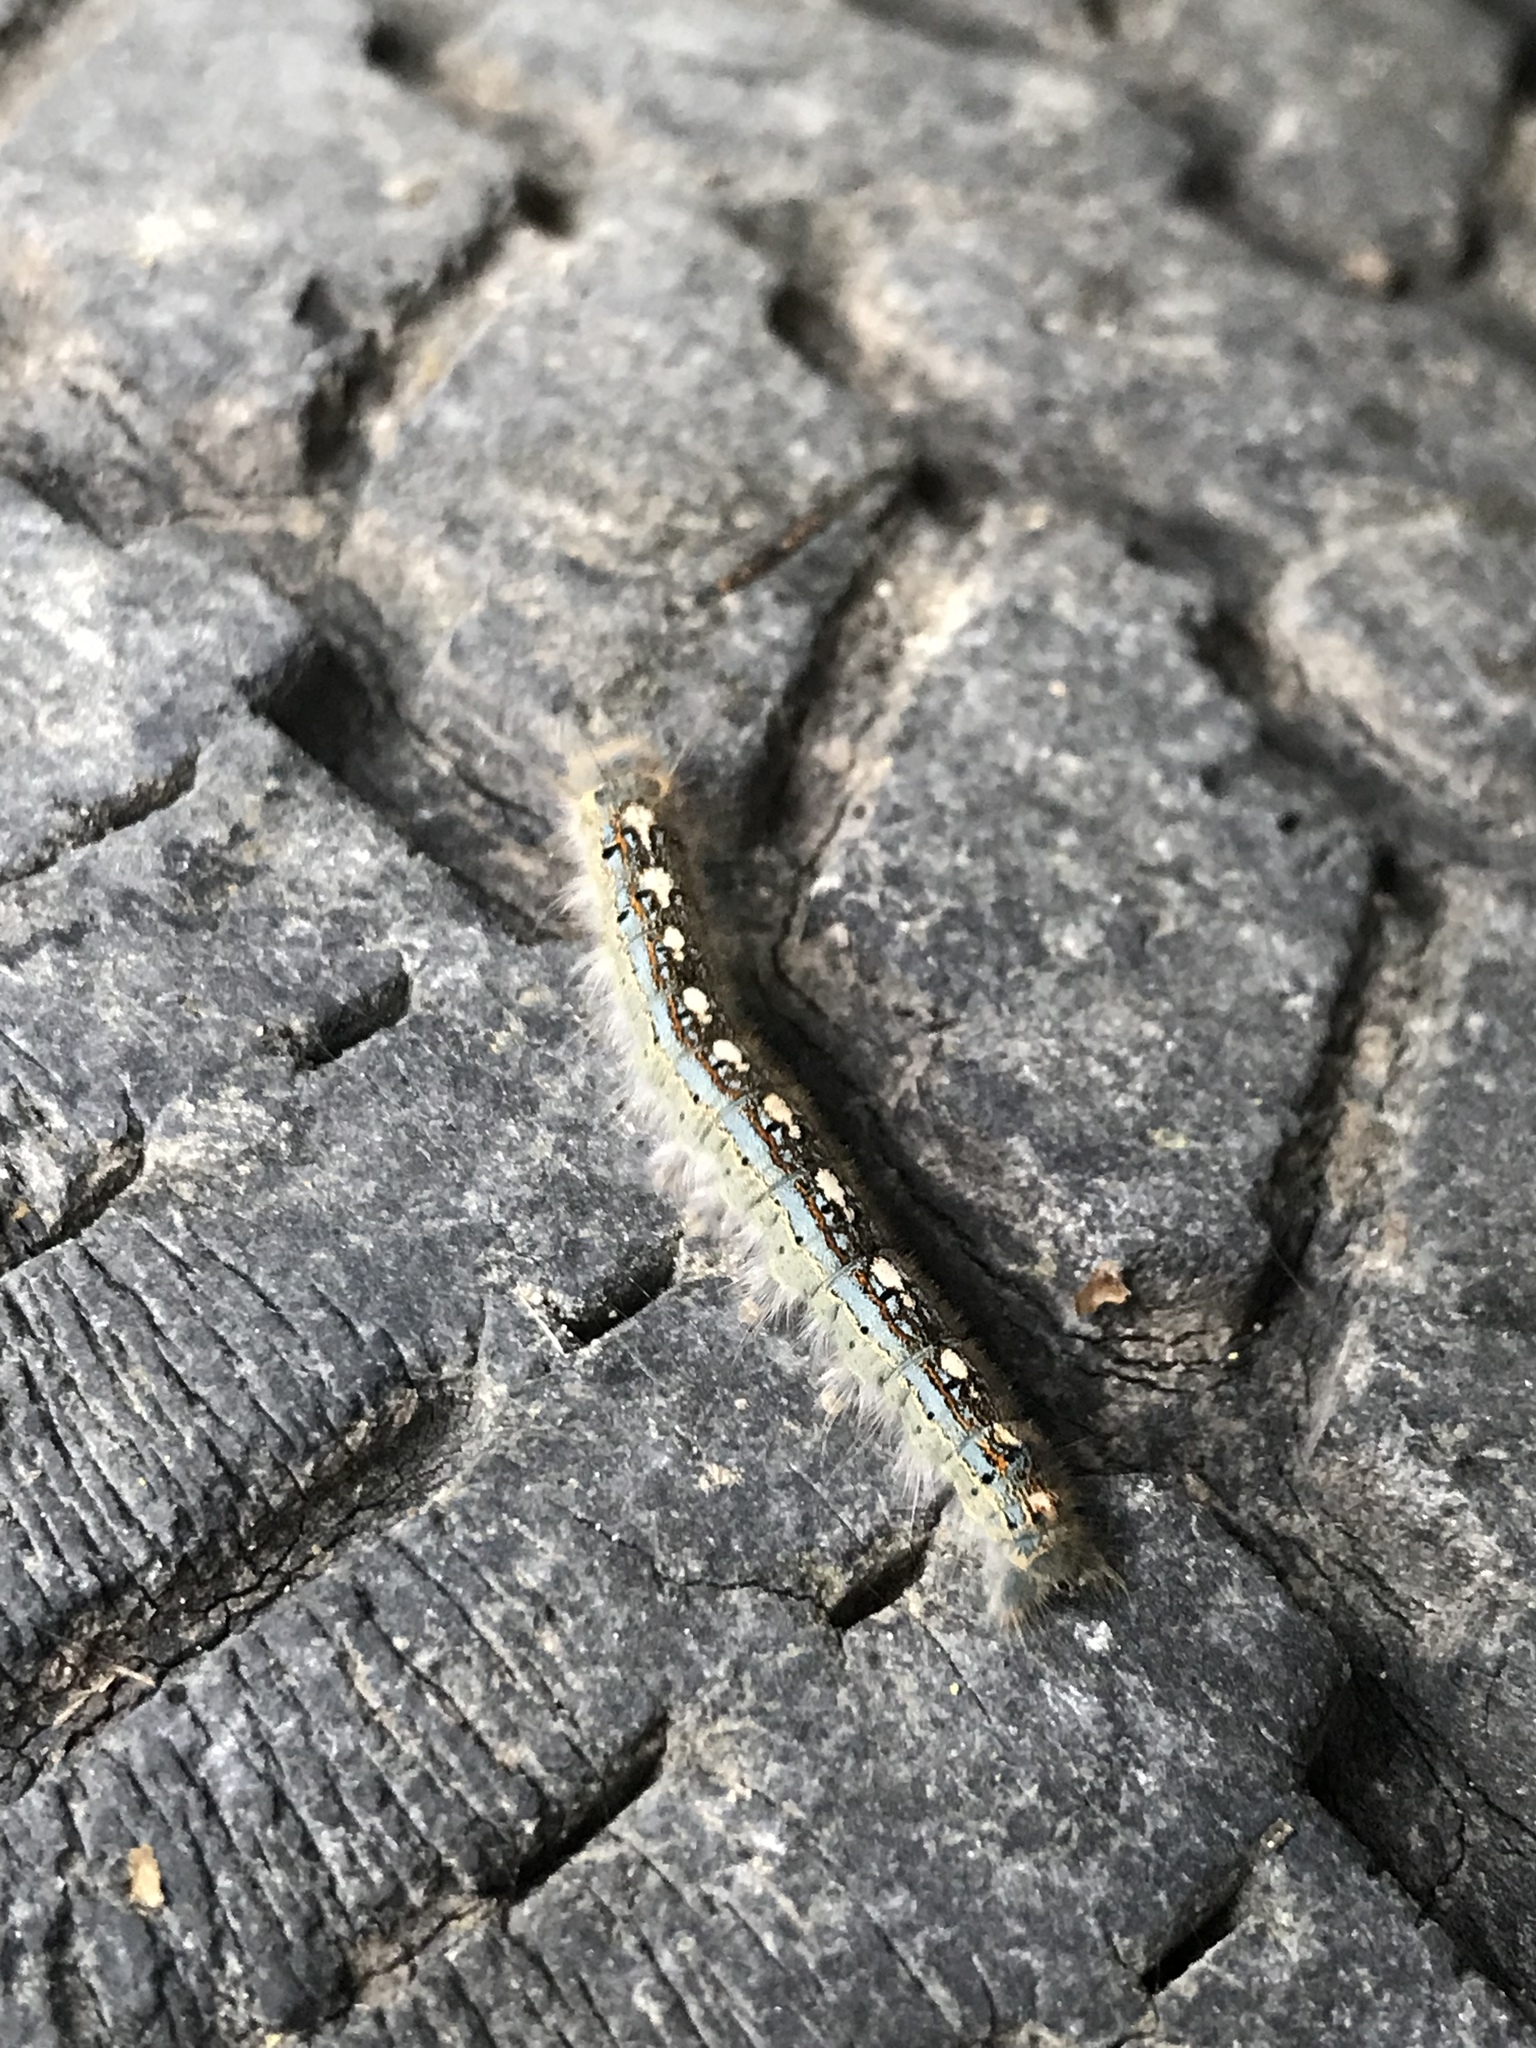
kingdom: Animalia
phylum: Arthropoda
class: Insecta
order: Lepidoptera
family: Lasiocampidae
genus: Malacosoma
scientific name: Malacosoma disstria
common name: Forest tent caterpillar
